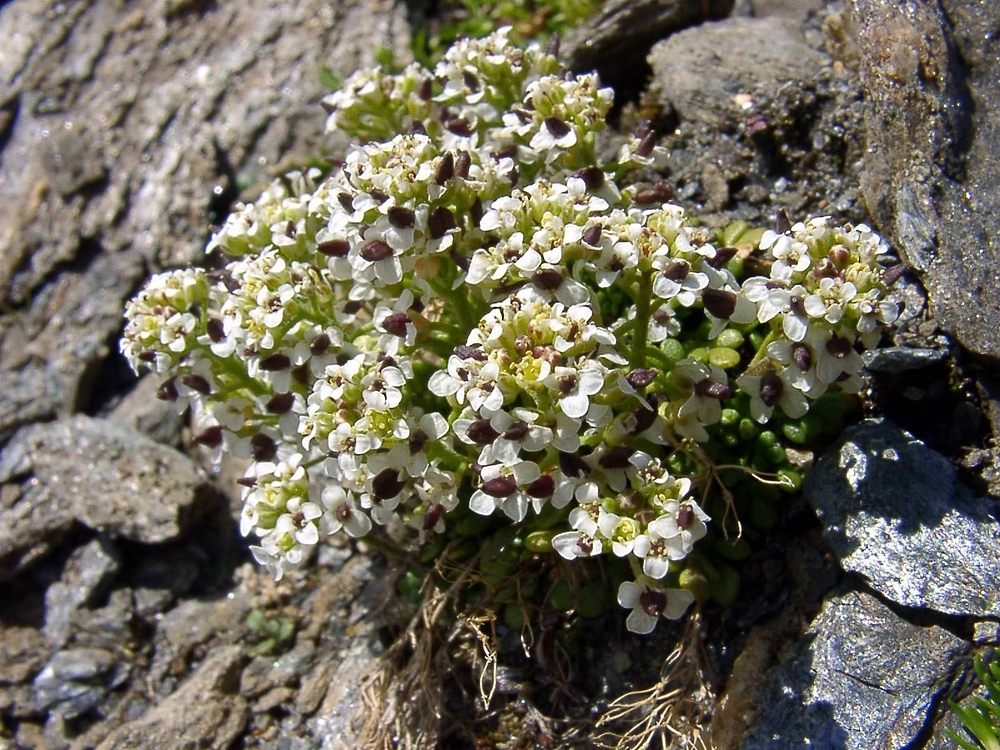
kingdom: Plantae
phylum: Tracheophyta
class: Magnoliopsida
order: Brassicales
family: Brassicaceae
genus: Hornungia
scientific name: Hornungia alpina
